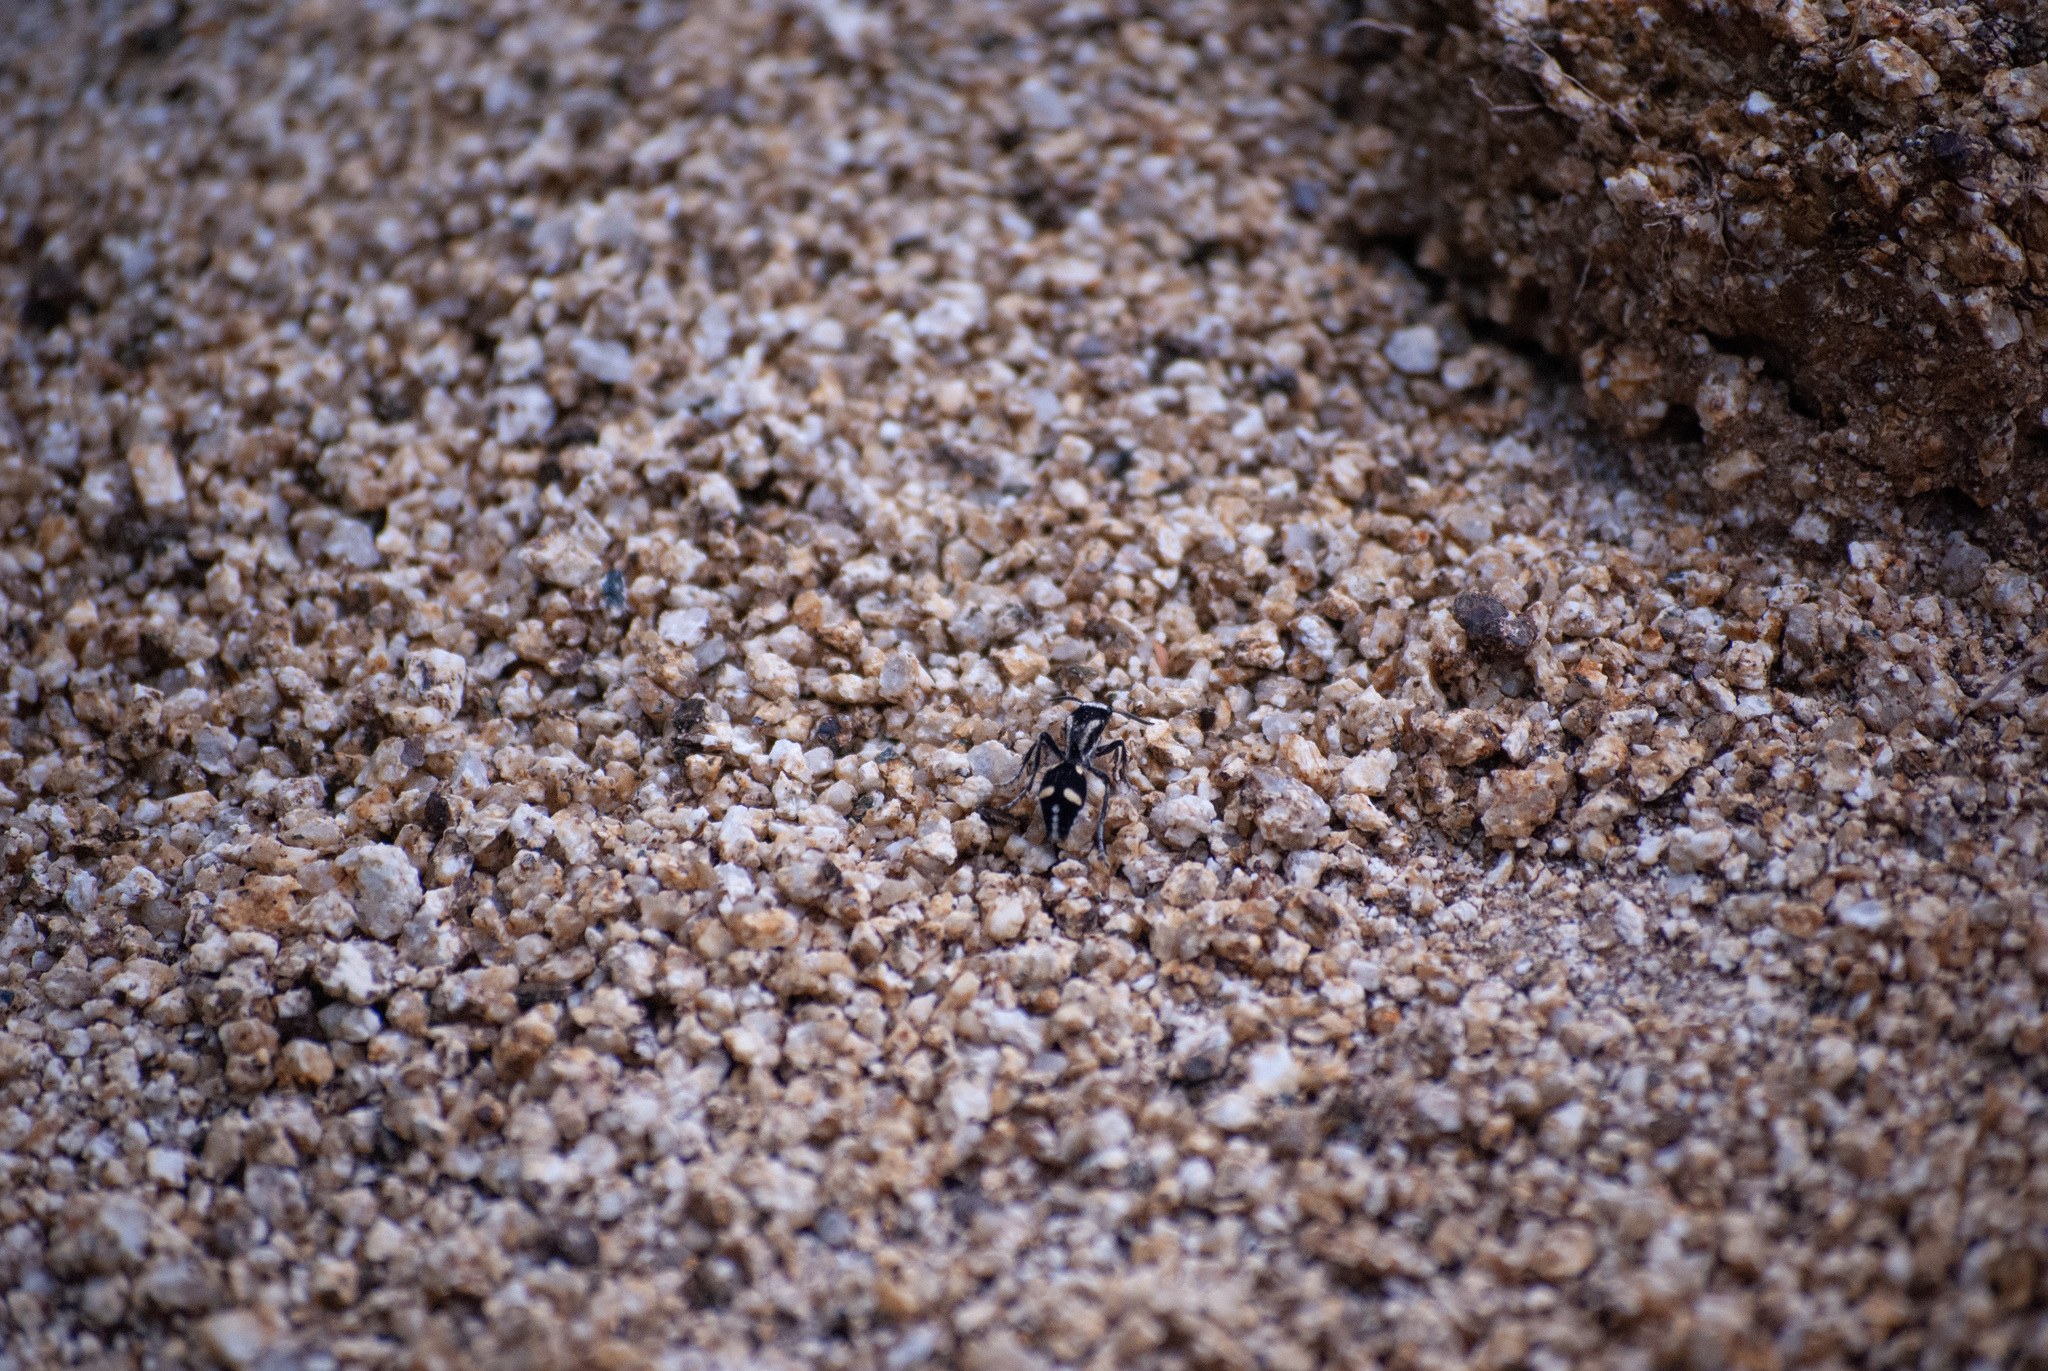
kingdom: Animalia
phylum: Arthropoda
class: Insecta
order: Hymenoptera
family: Mutillidae
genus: Traumatomutilla
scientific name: Traumatomutilla indica
